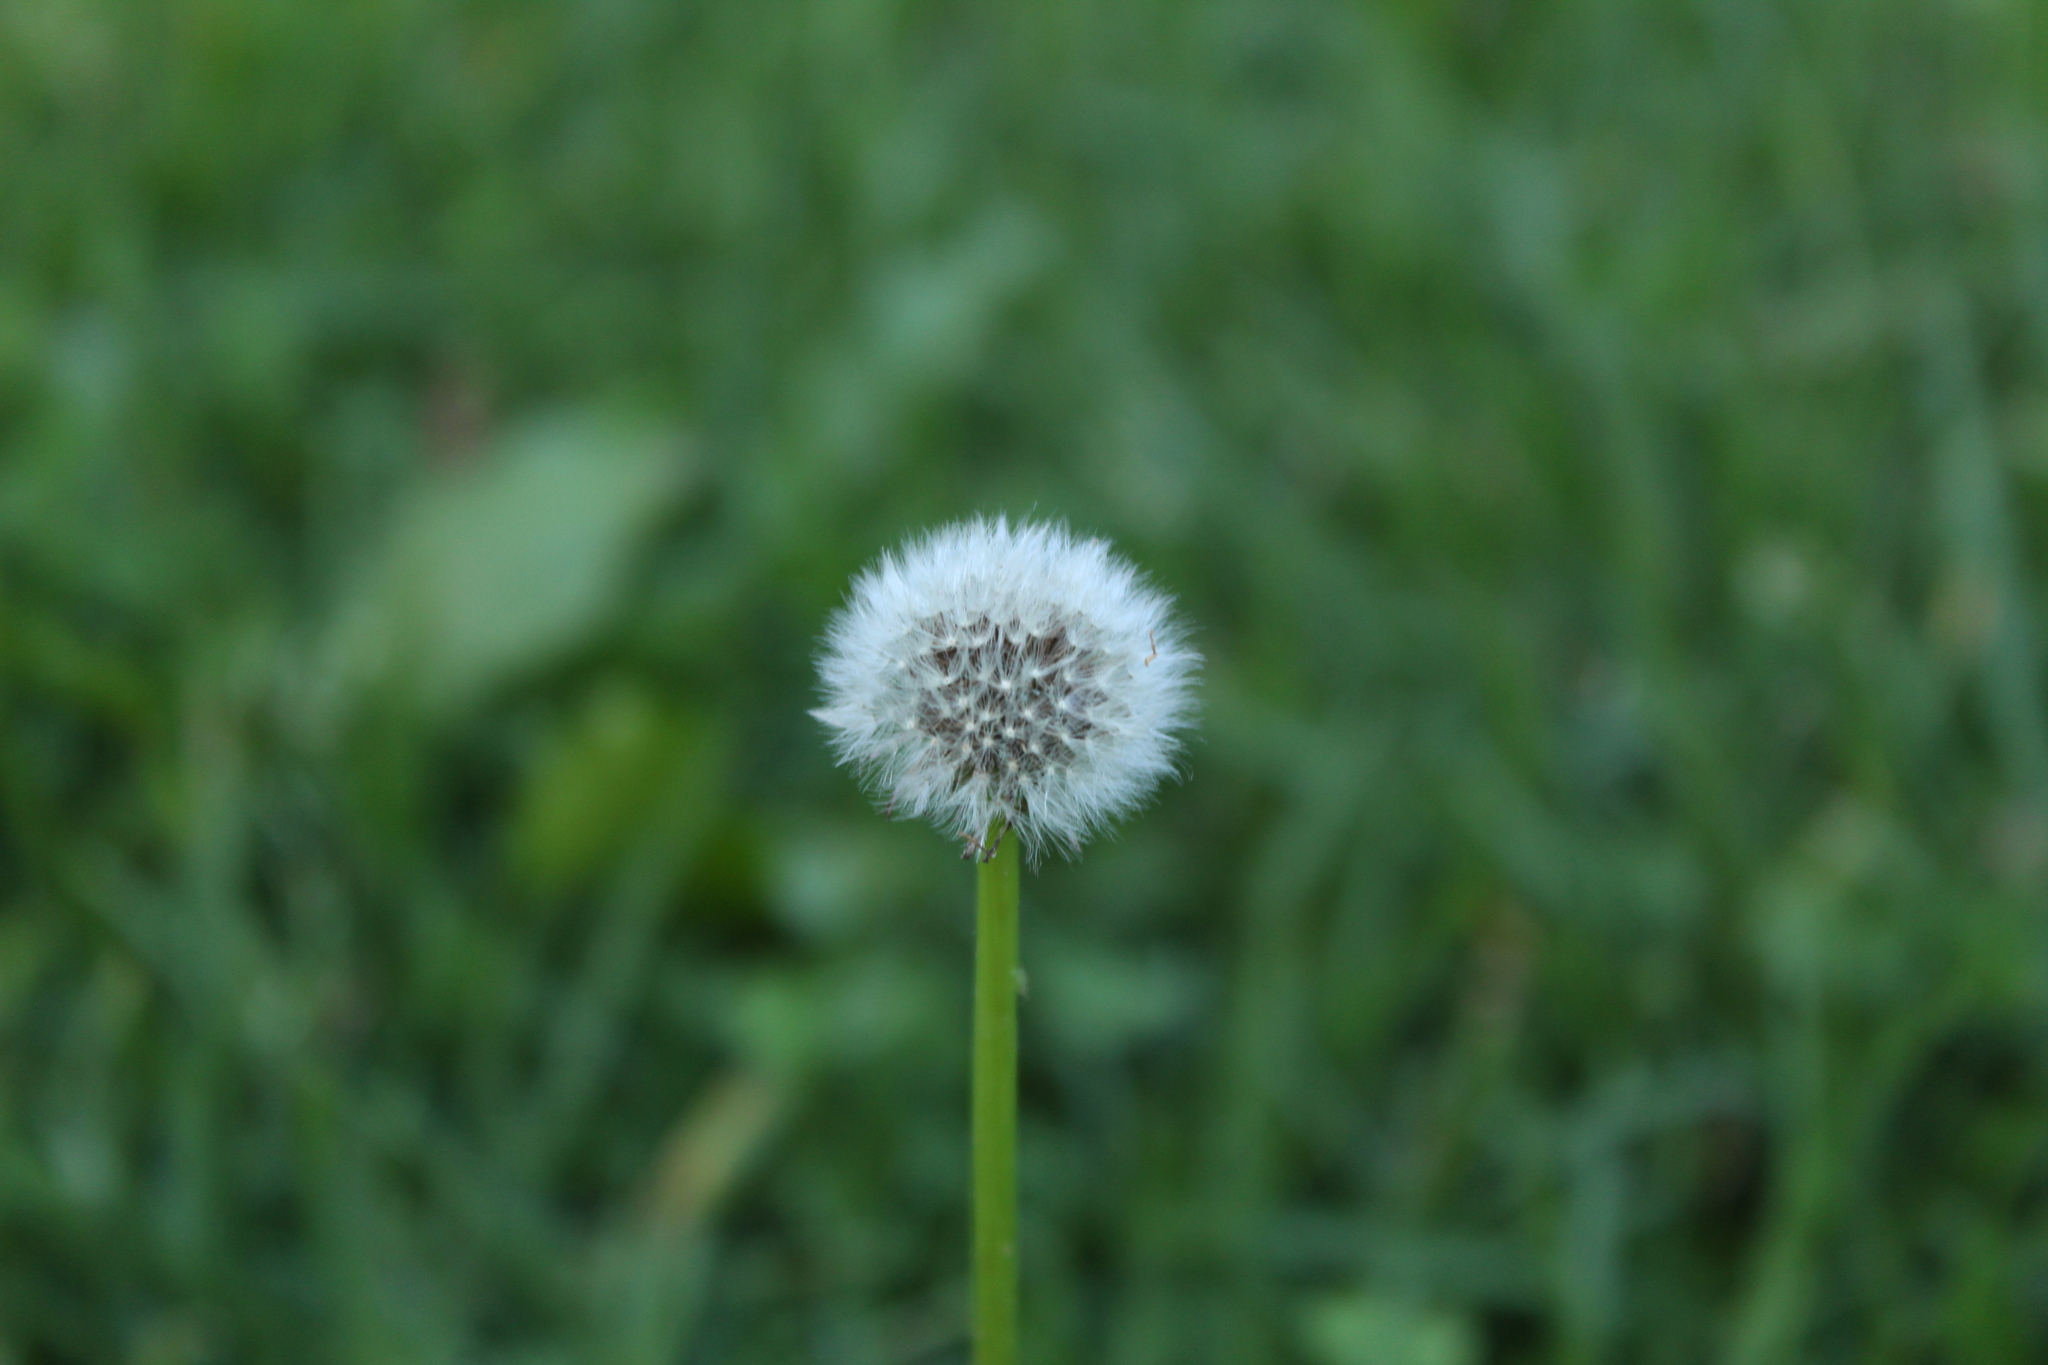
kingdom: Plantae
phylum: Tracheophyta
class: Magnoliopsida
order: Asterales
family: Asteraceae
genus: Taraxacum
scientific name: Taraxacum officinale
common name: Common dandelion
